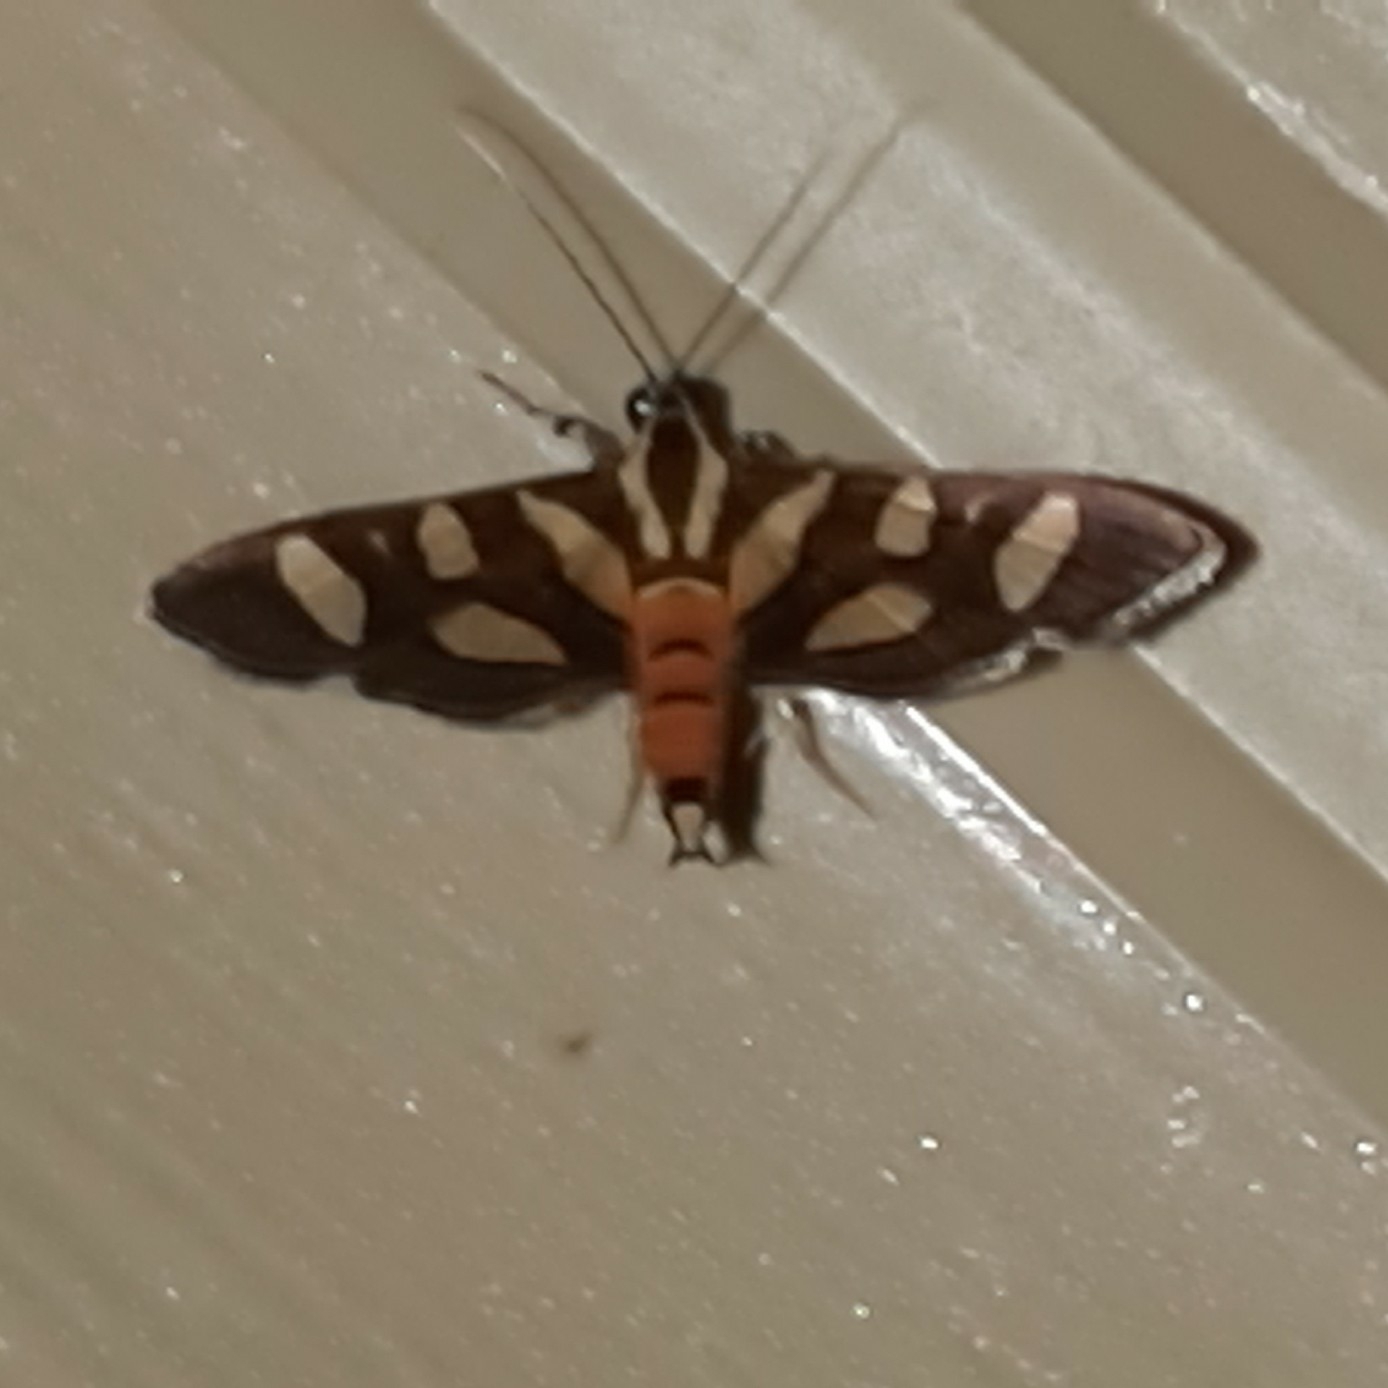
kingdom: Animalia
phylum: Arthropoda
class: Insecta
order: Lepidoptera
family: Crambidae
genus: Syngamia
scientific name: Syngamia florella
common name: Orange-spotted flower moth
